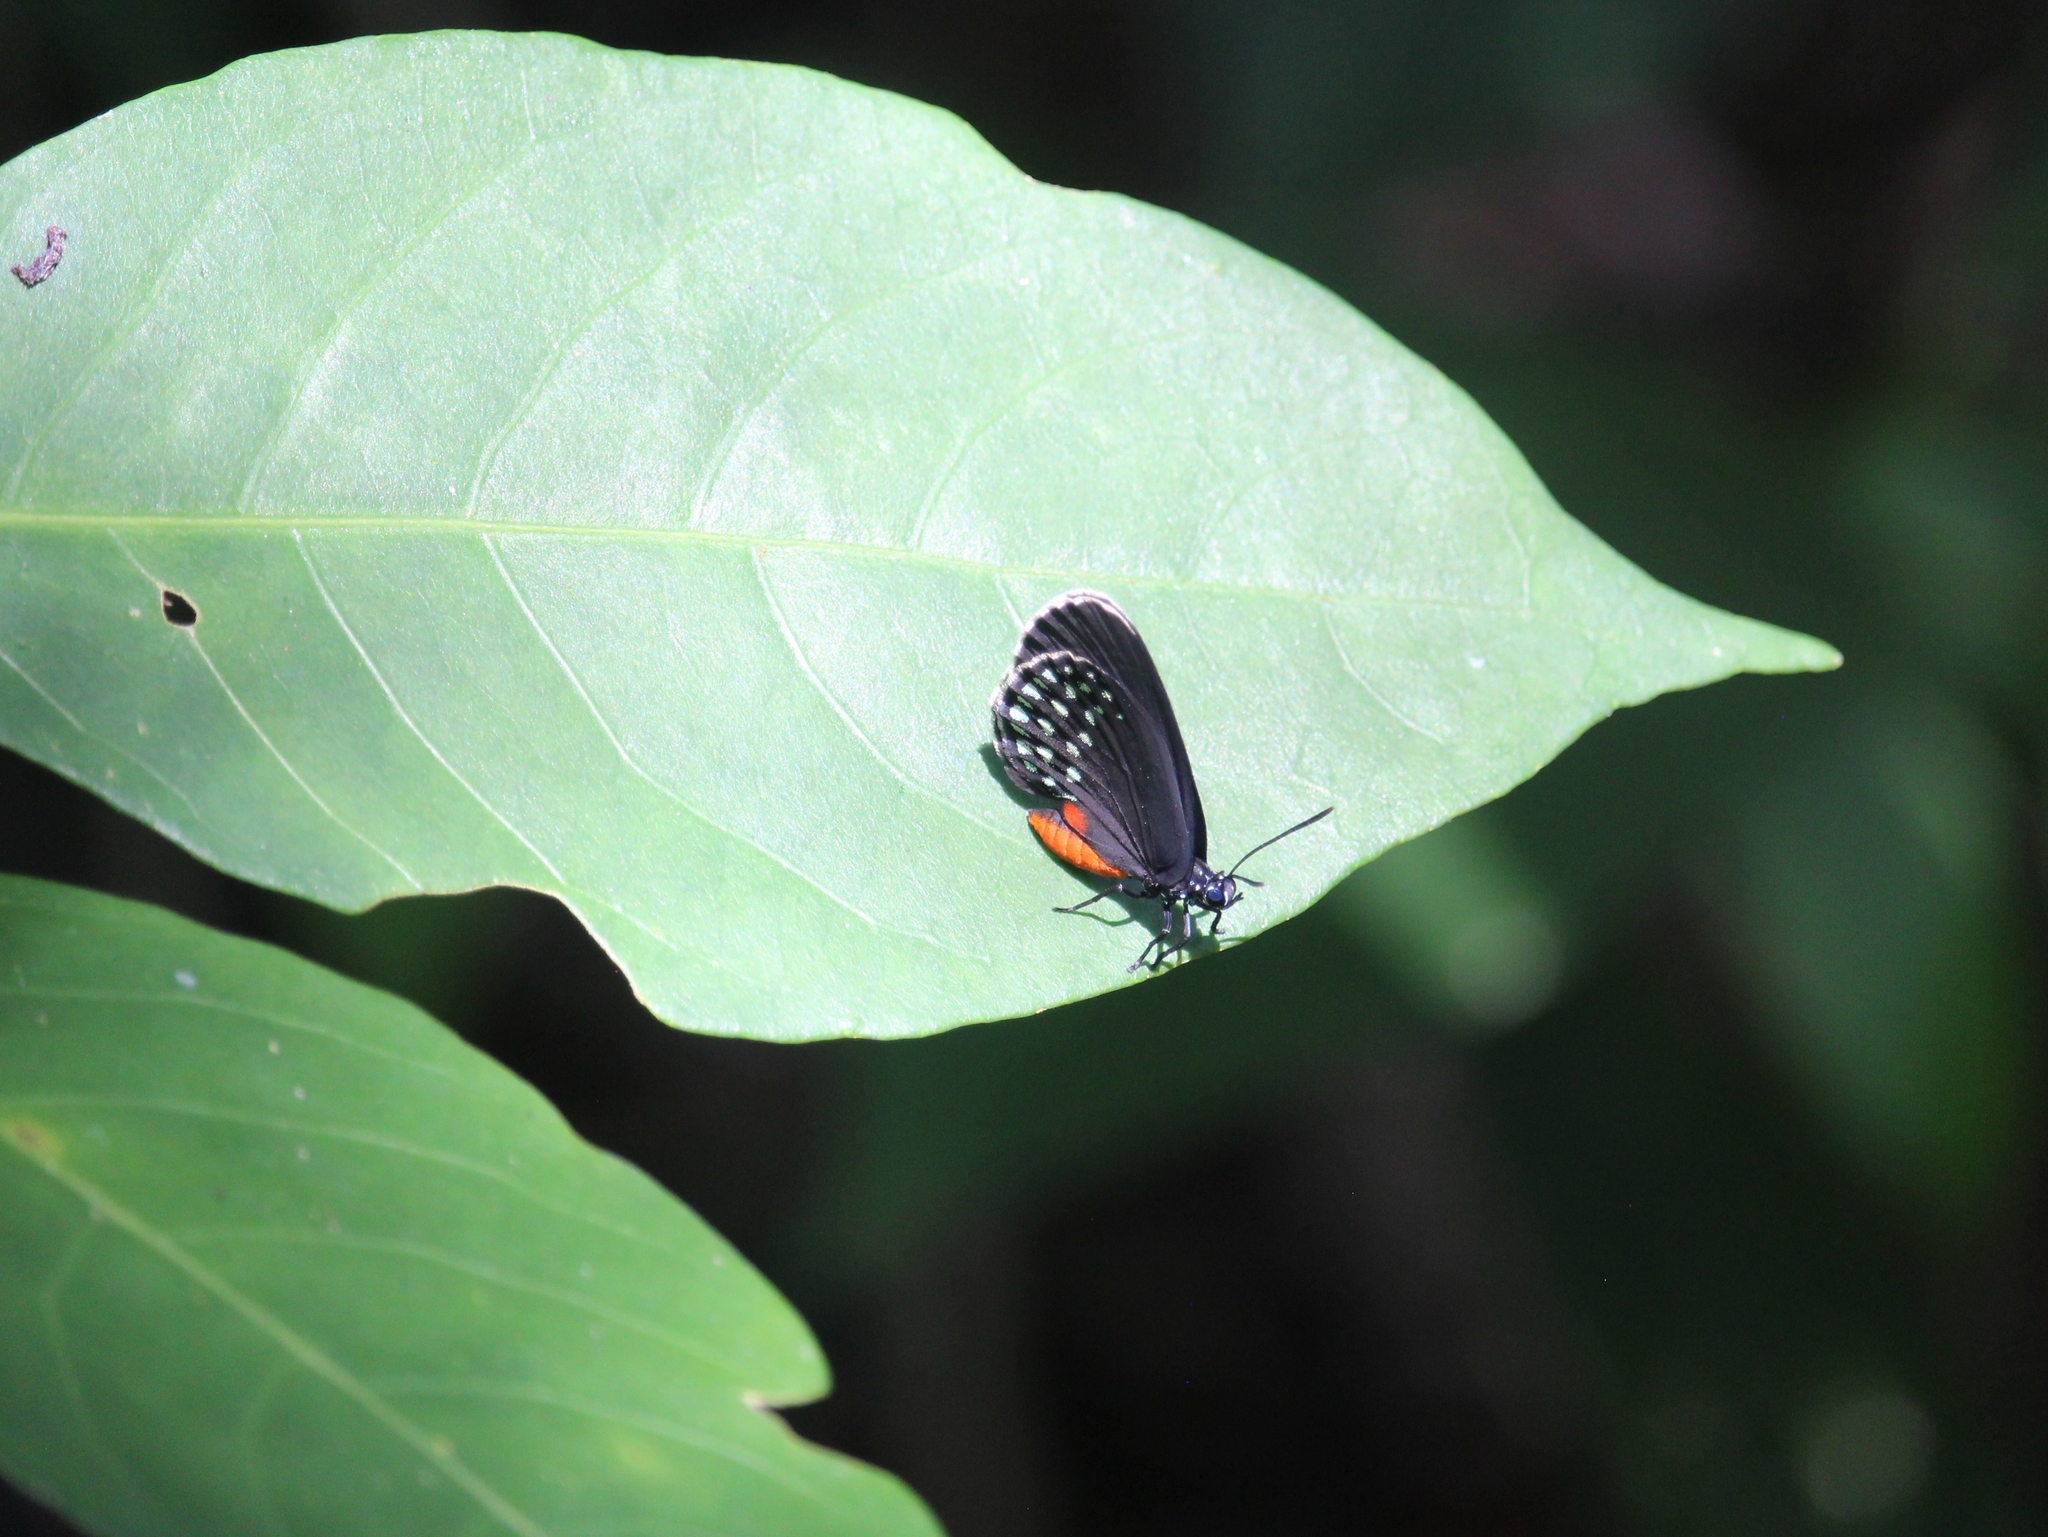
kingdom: Animalia
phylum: Arthropoda
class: Insecta
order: Lepidoptera
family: Lycaenidae
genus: Eumaeus
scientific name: Eumaeus toxea
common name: Mexican cycadian
